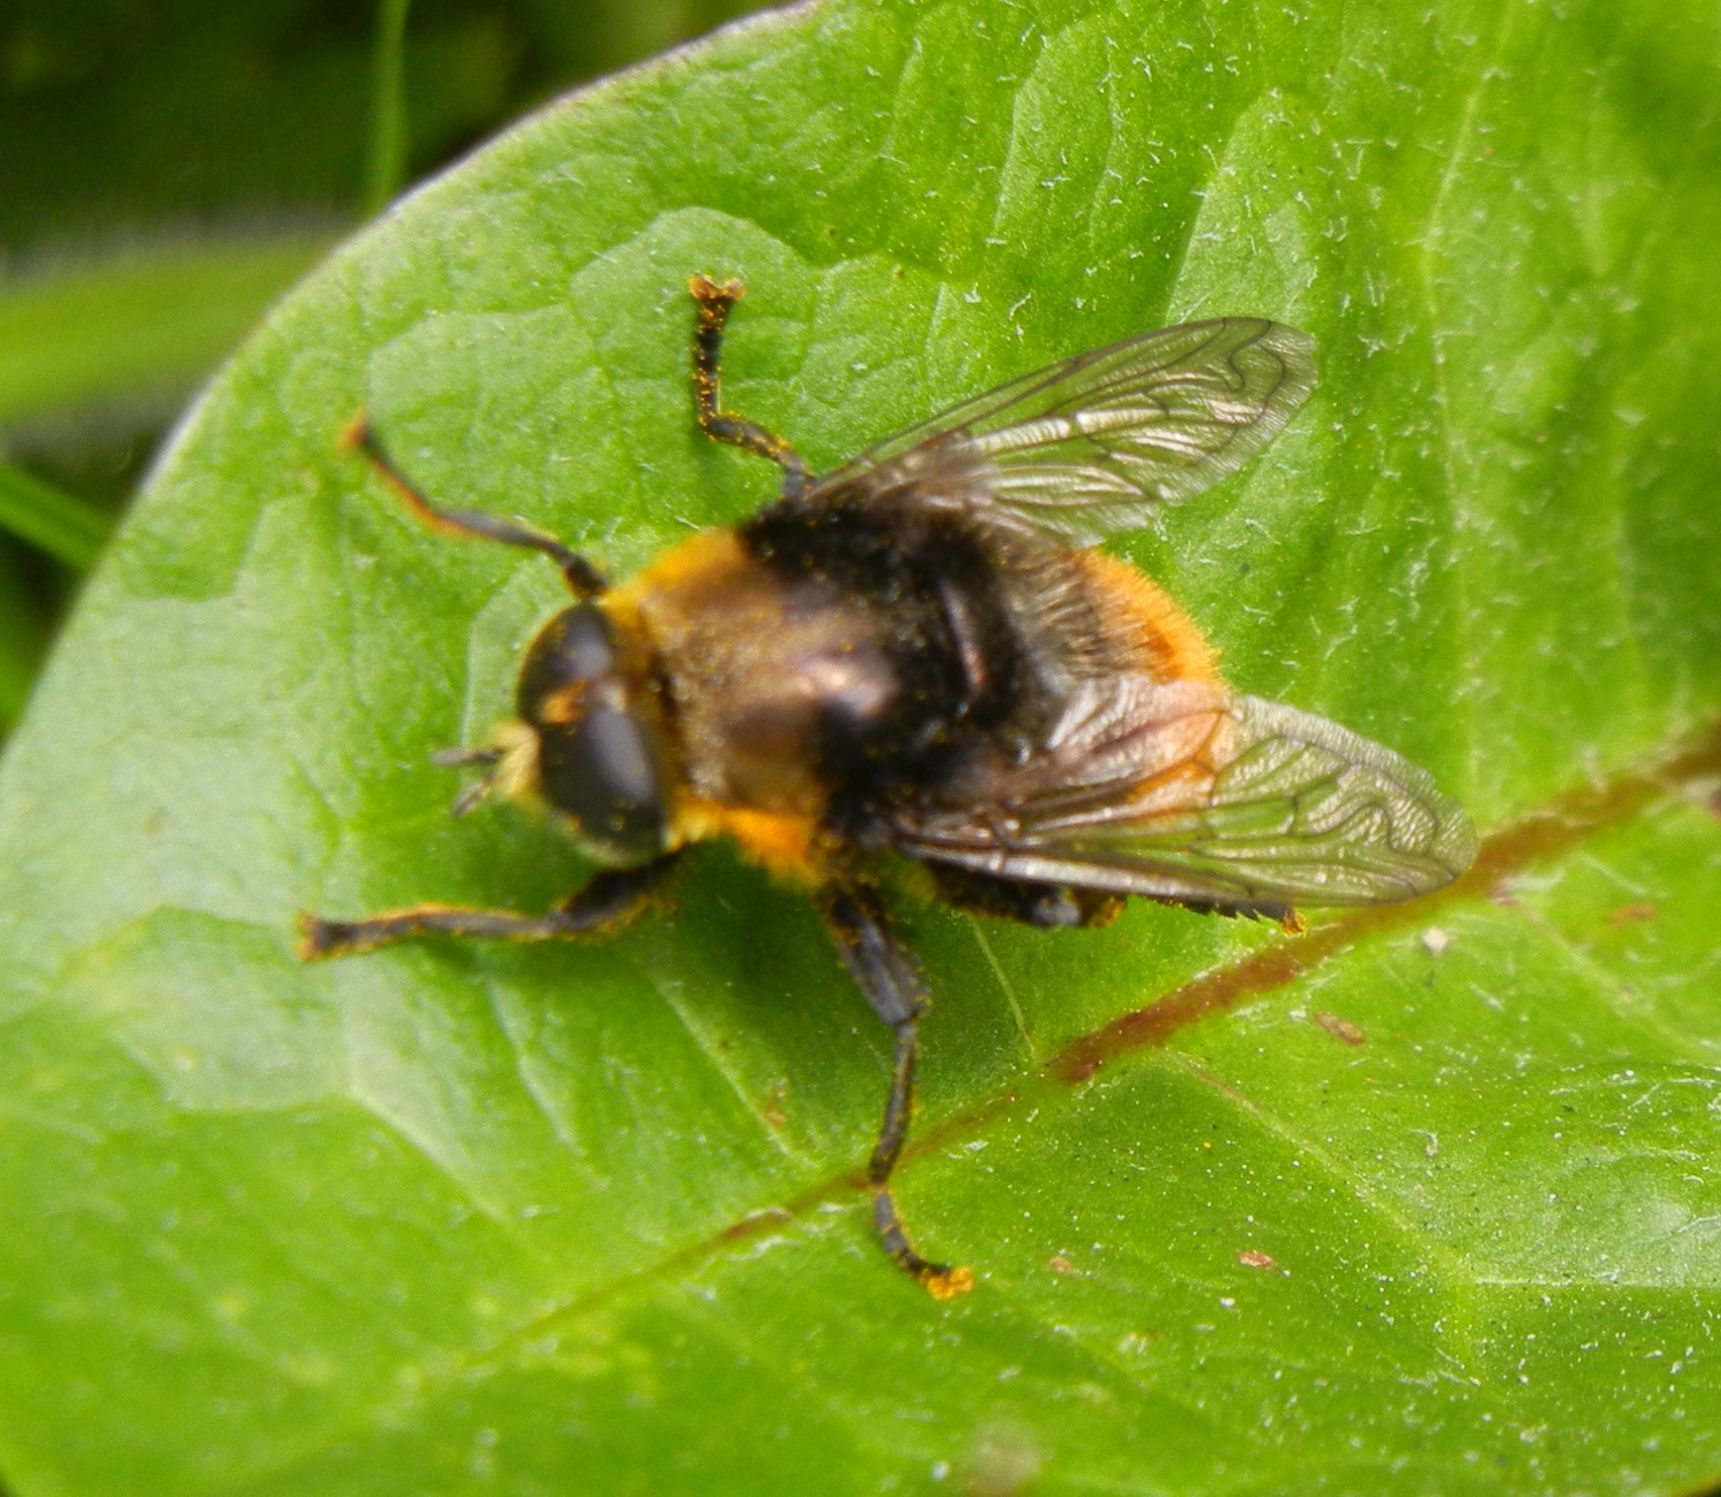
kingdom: Animalia
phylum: Arthropoda
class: Insecta
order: Diptera
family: Syrphidae
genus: Merodon
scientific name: Merodon equestris
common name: Greater bulb-fly
